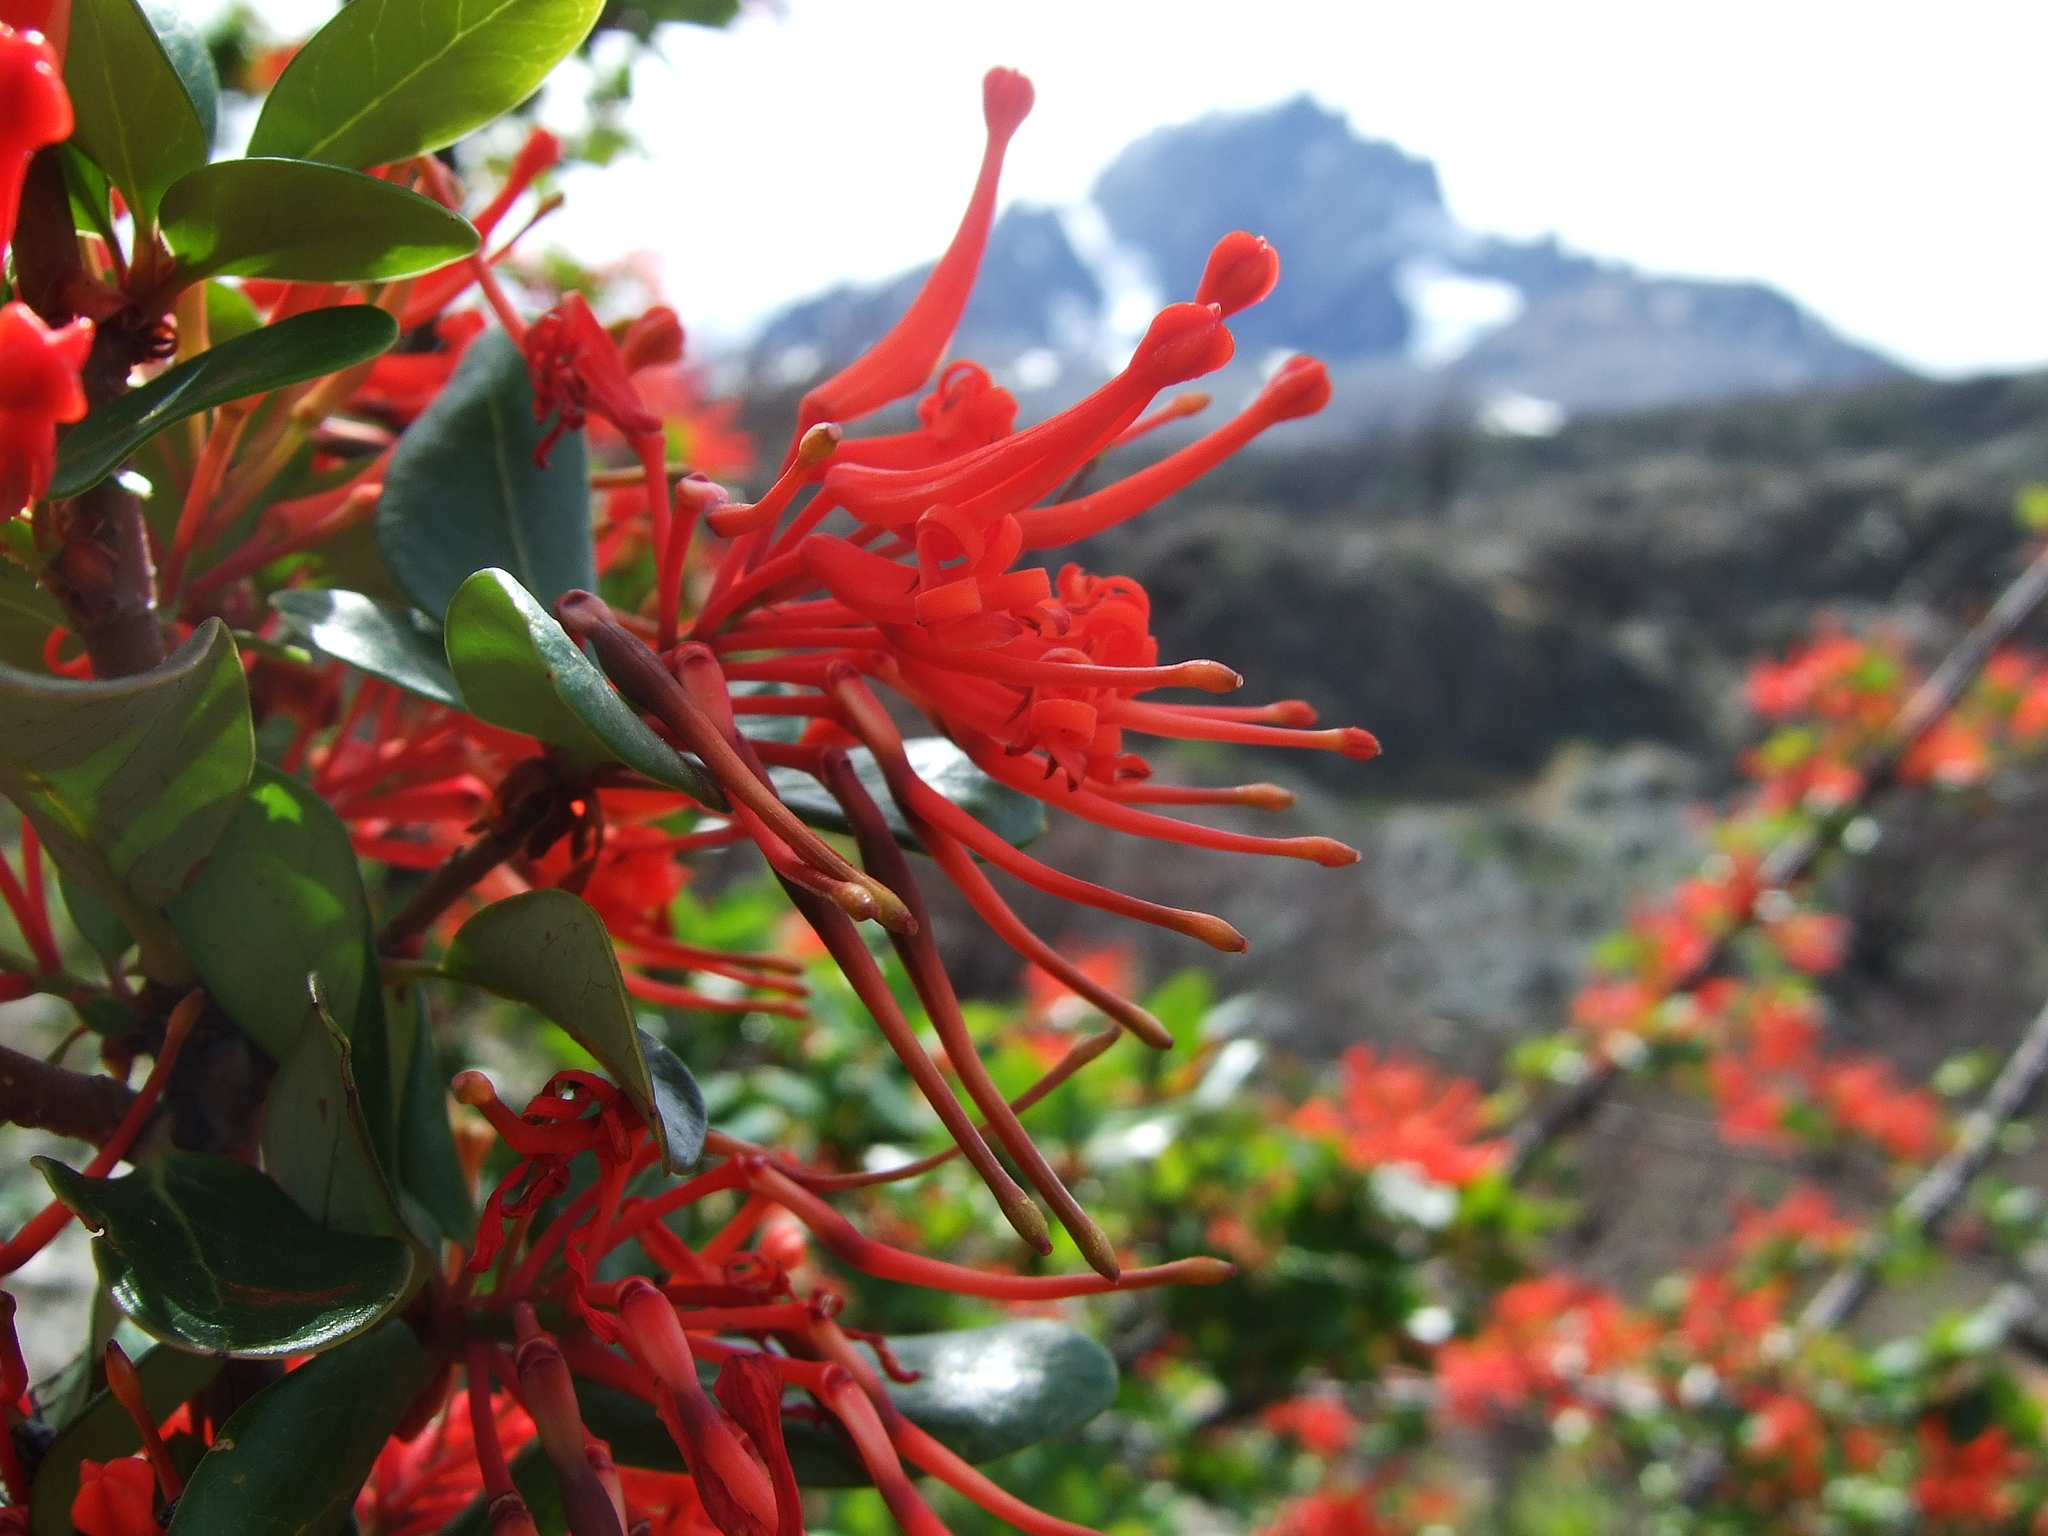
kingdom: Plantae
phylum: Tracheophyta
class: Magnoliopsida
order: Proteales
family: Proteaceae
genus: Embothrium
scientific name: Embothrium coccineum
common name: Chilean firebush
